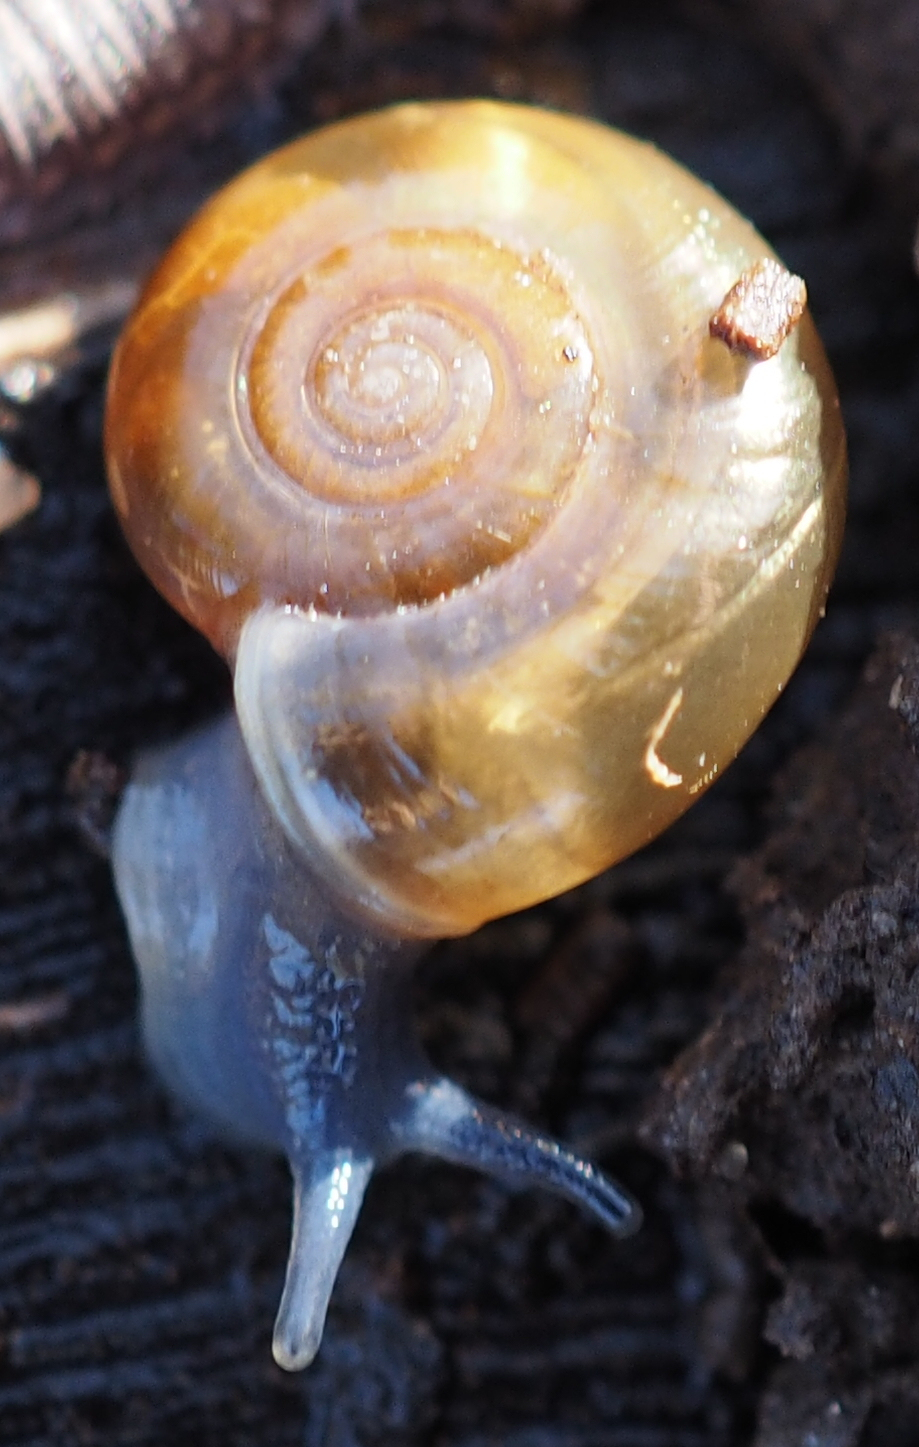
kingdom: Animalia
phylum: Mollusca
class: Gastropoda
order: Stylommatophora
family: Oxychilidae
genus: Oxychilus
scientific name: Oxychilus draparnaudi
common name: Draparnaud's glass snail
